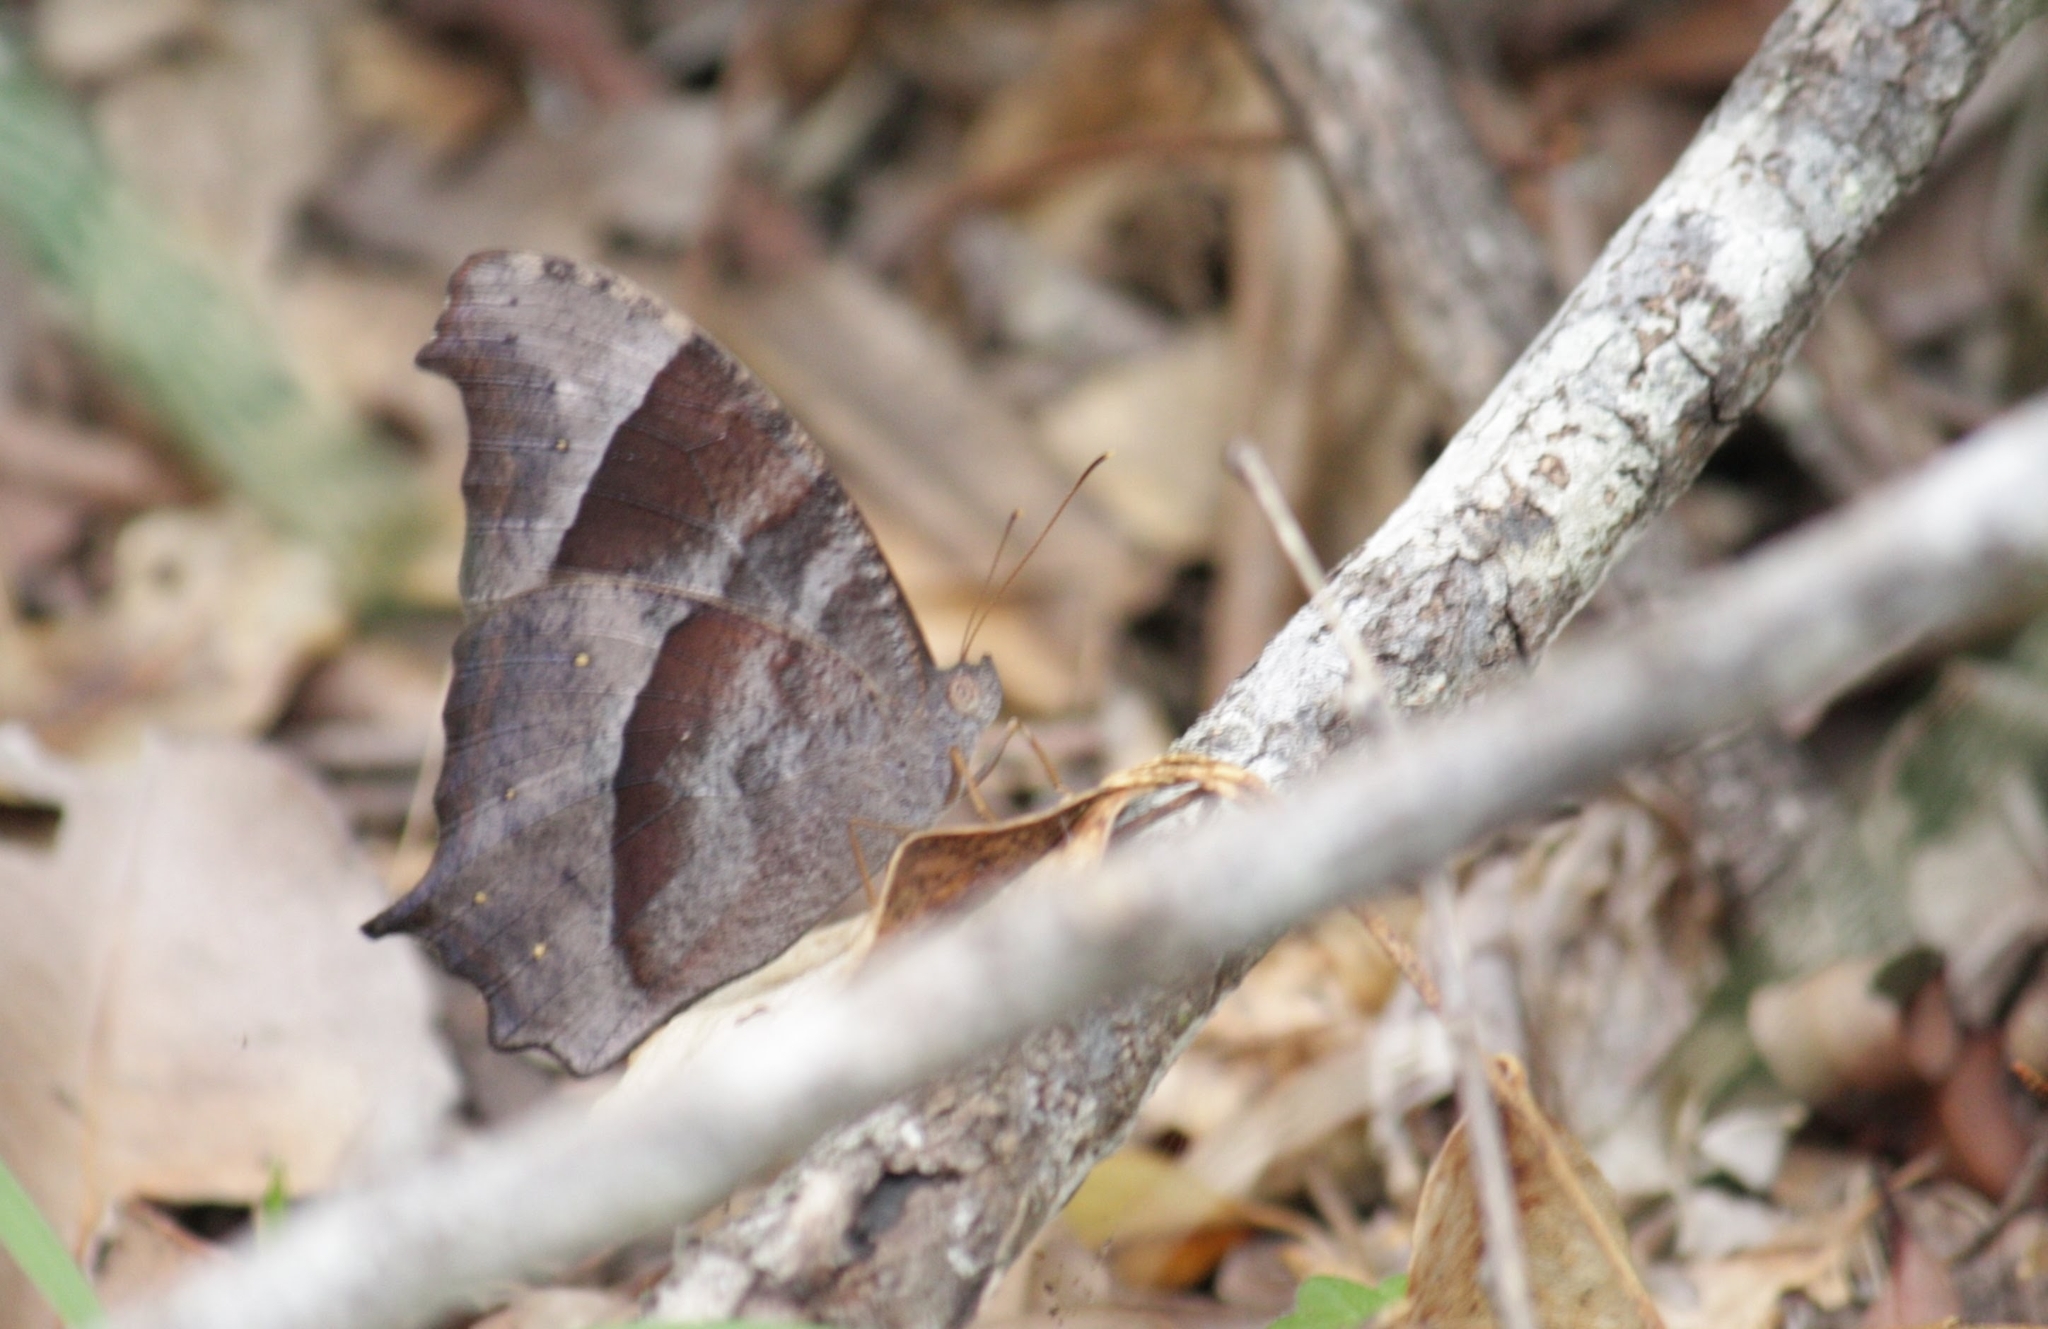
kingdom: Animalia
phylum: Arthropoda
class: Insecta
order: Lepidoptera
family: Nymphalidae
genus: Melanitis
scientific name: Melanitis leda
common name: Twilight brown
